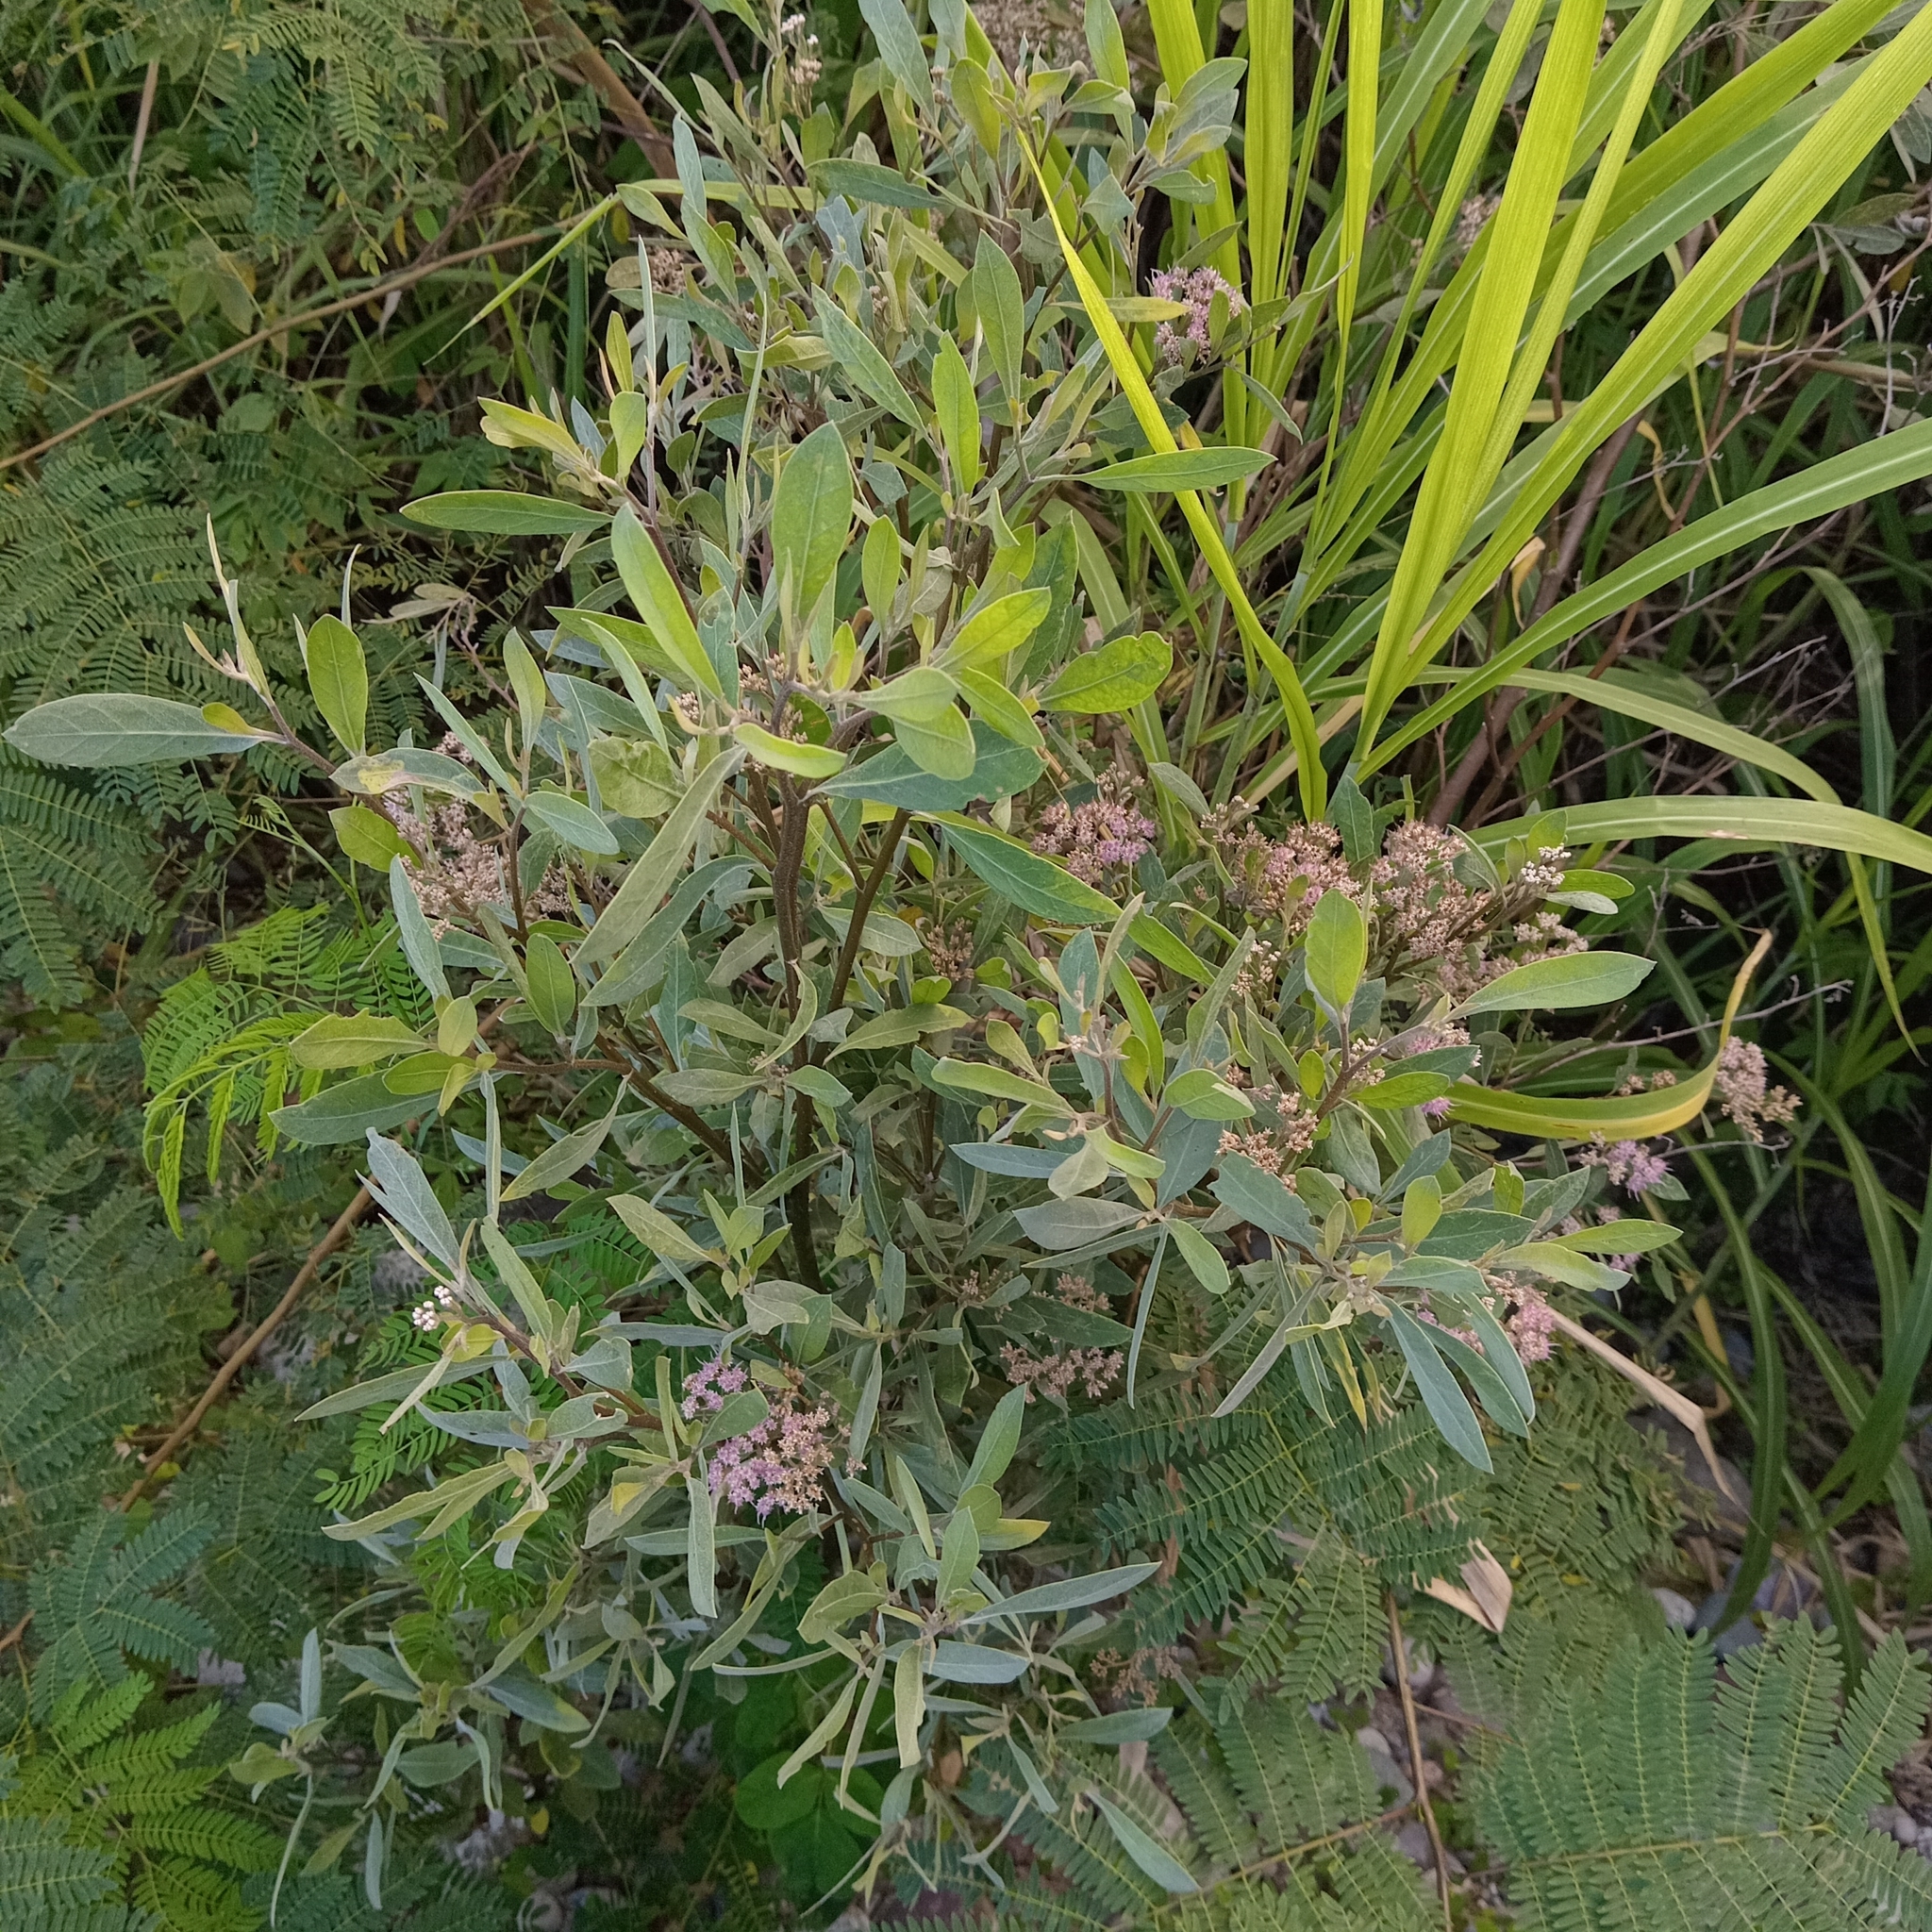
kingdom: Plantae
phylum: Tracheophyta
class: Magnoliopsida
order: Asterales
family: Asteraceae
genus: Tessaria
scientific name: Tessaria integrifolia
